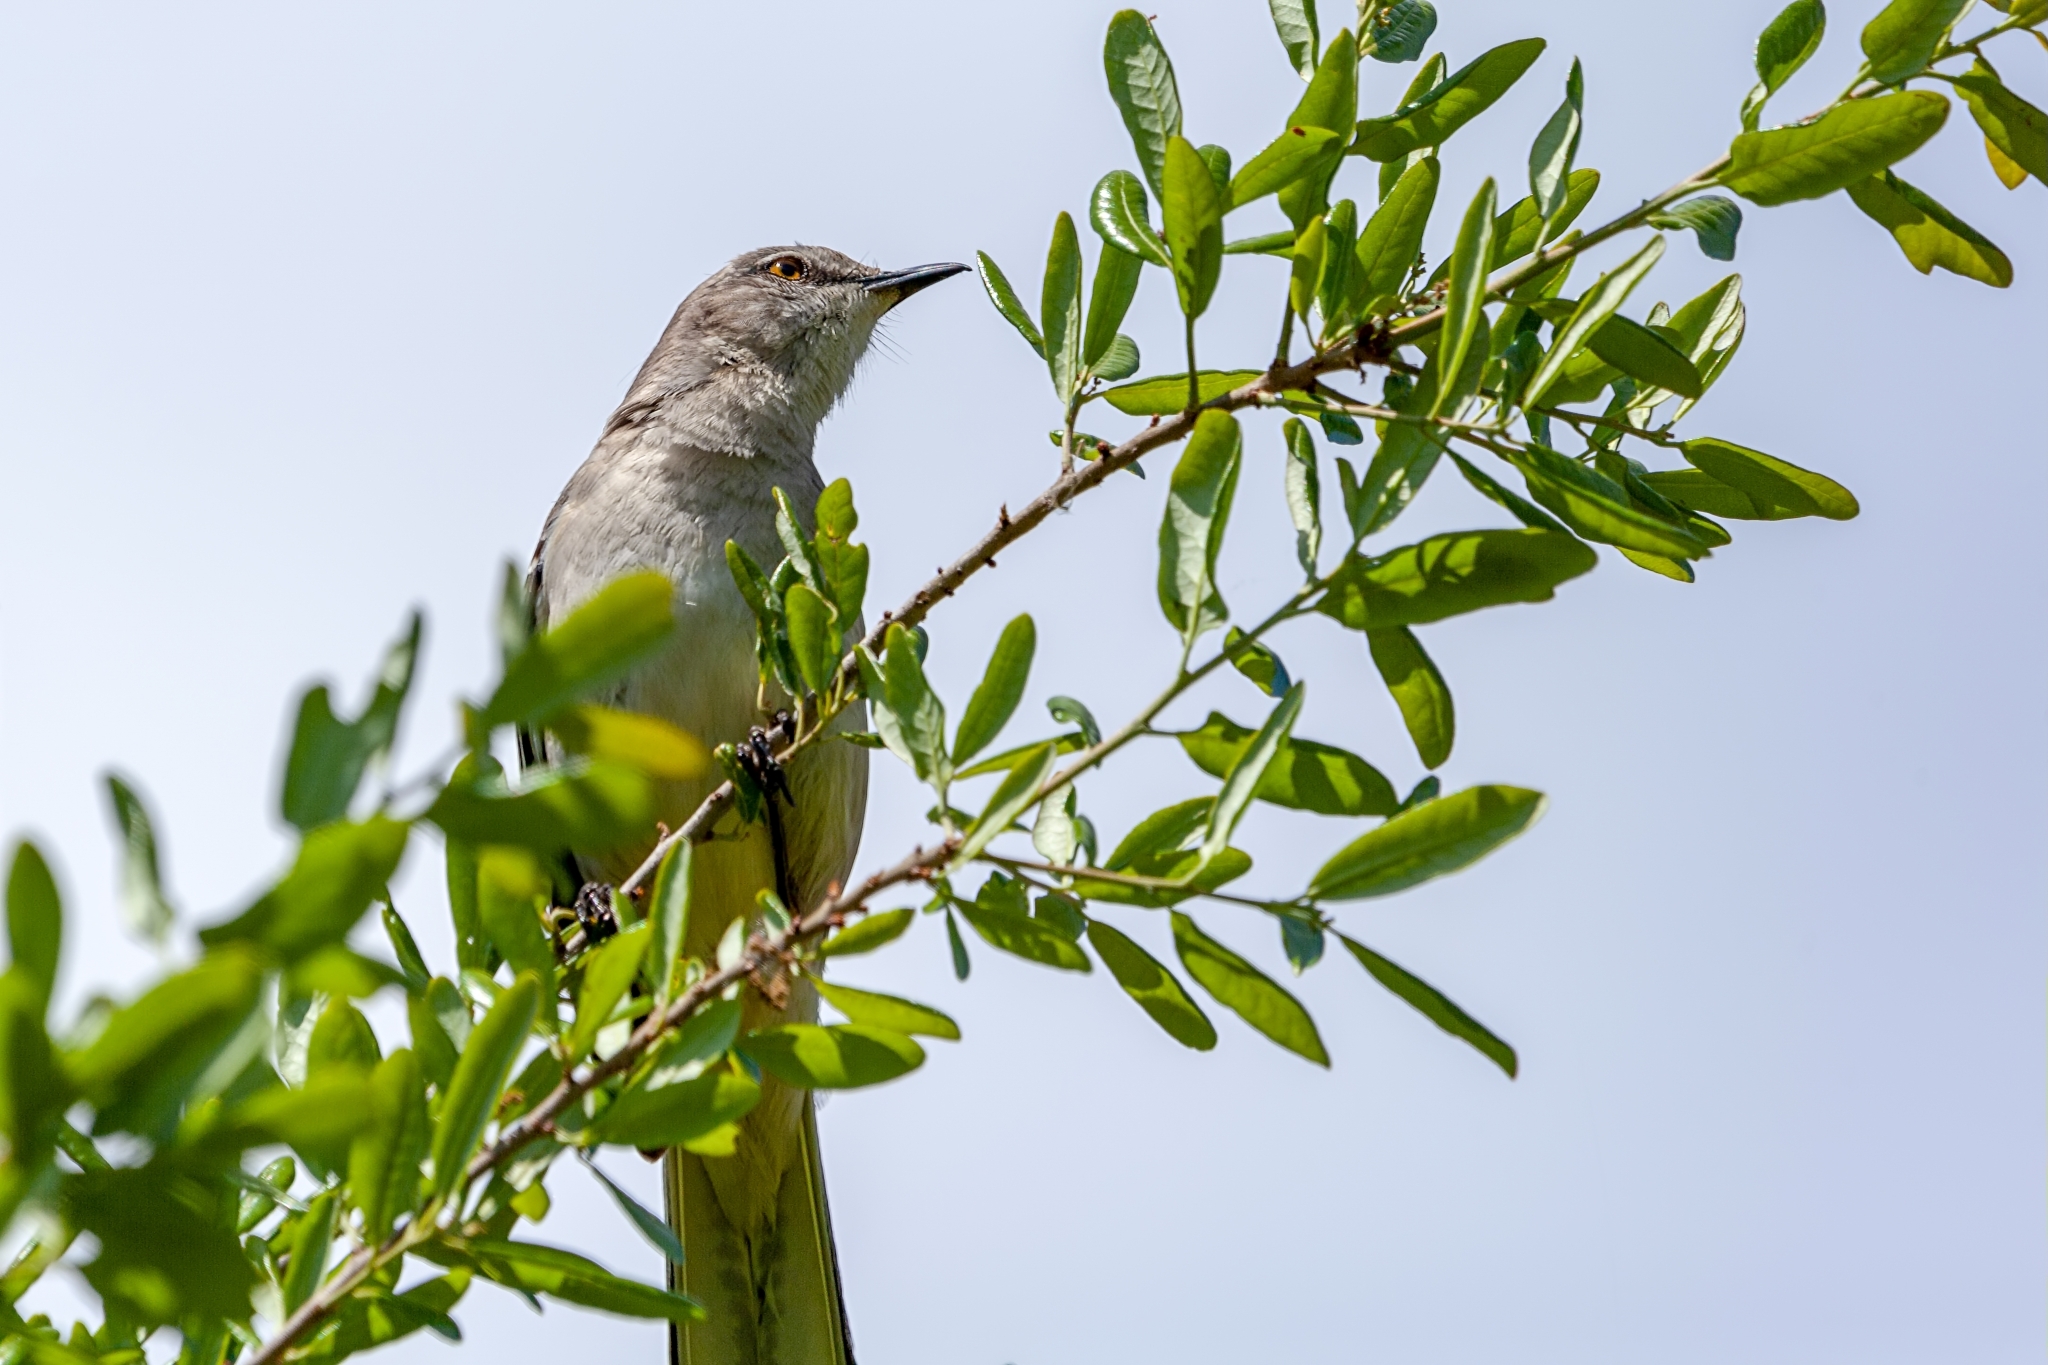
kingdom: Animalia
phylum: Chordata
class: Aves
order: Passeriformes
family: Mimidae
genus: Mimus
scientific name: Mimus polyglottos
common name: Northern mockingbird
